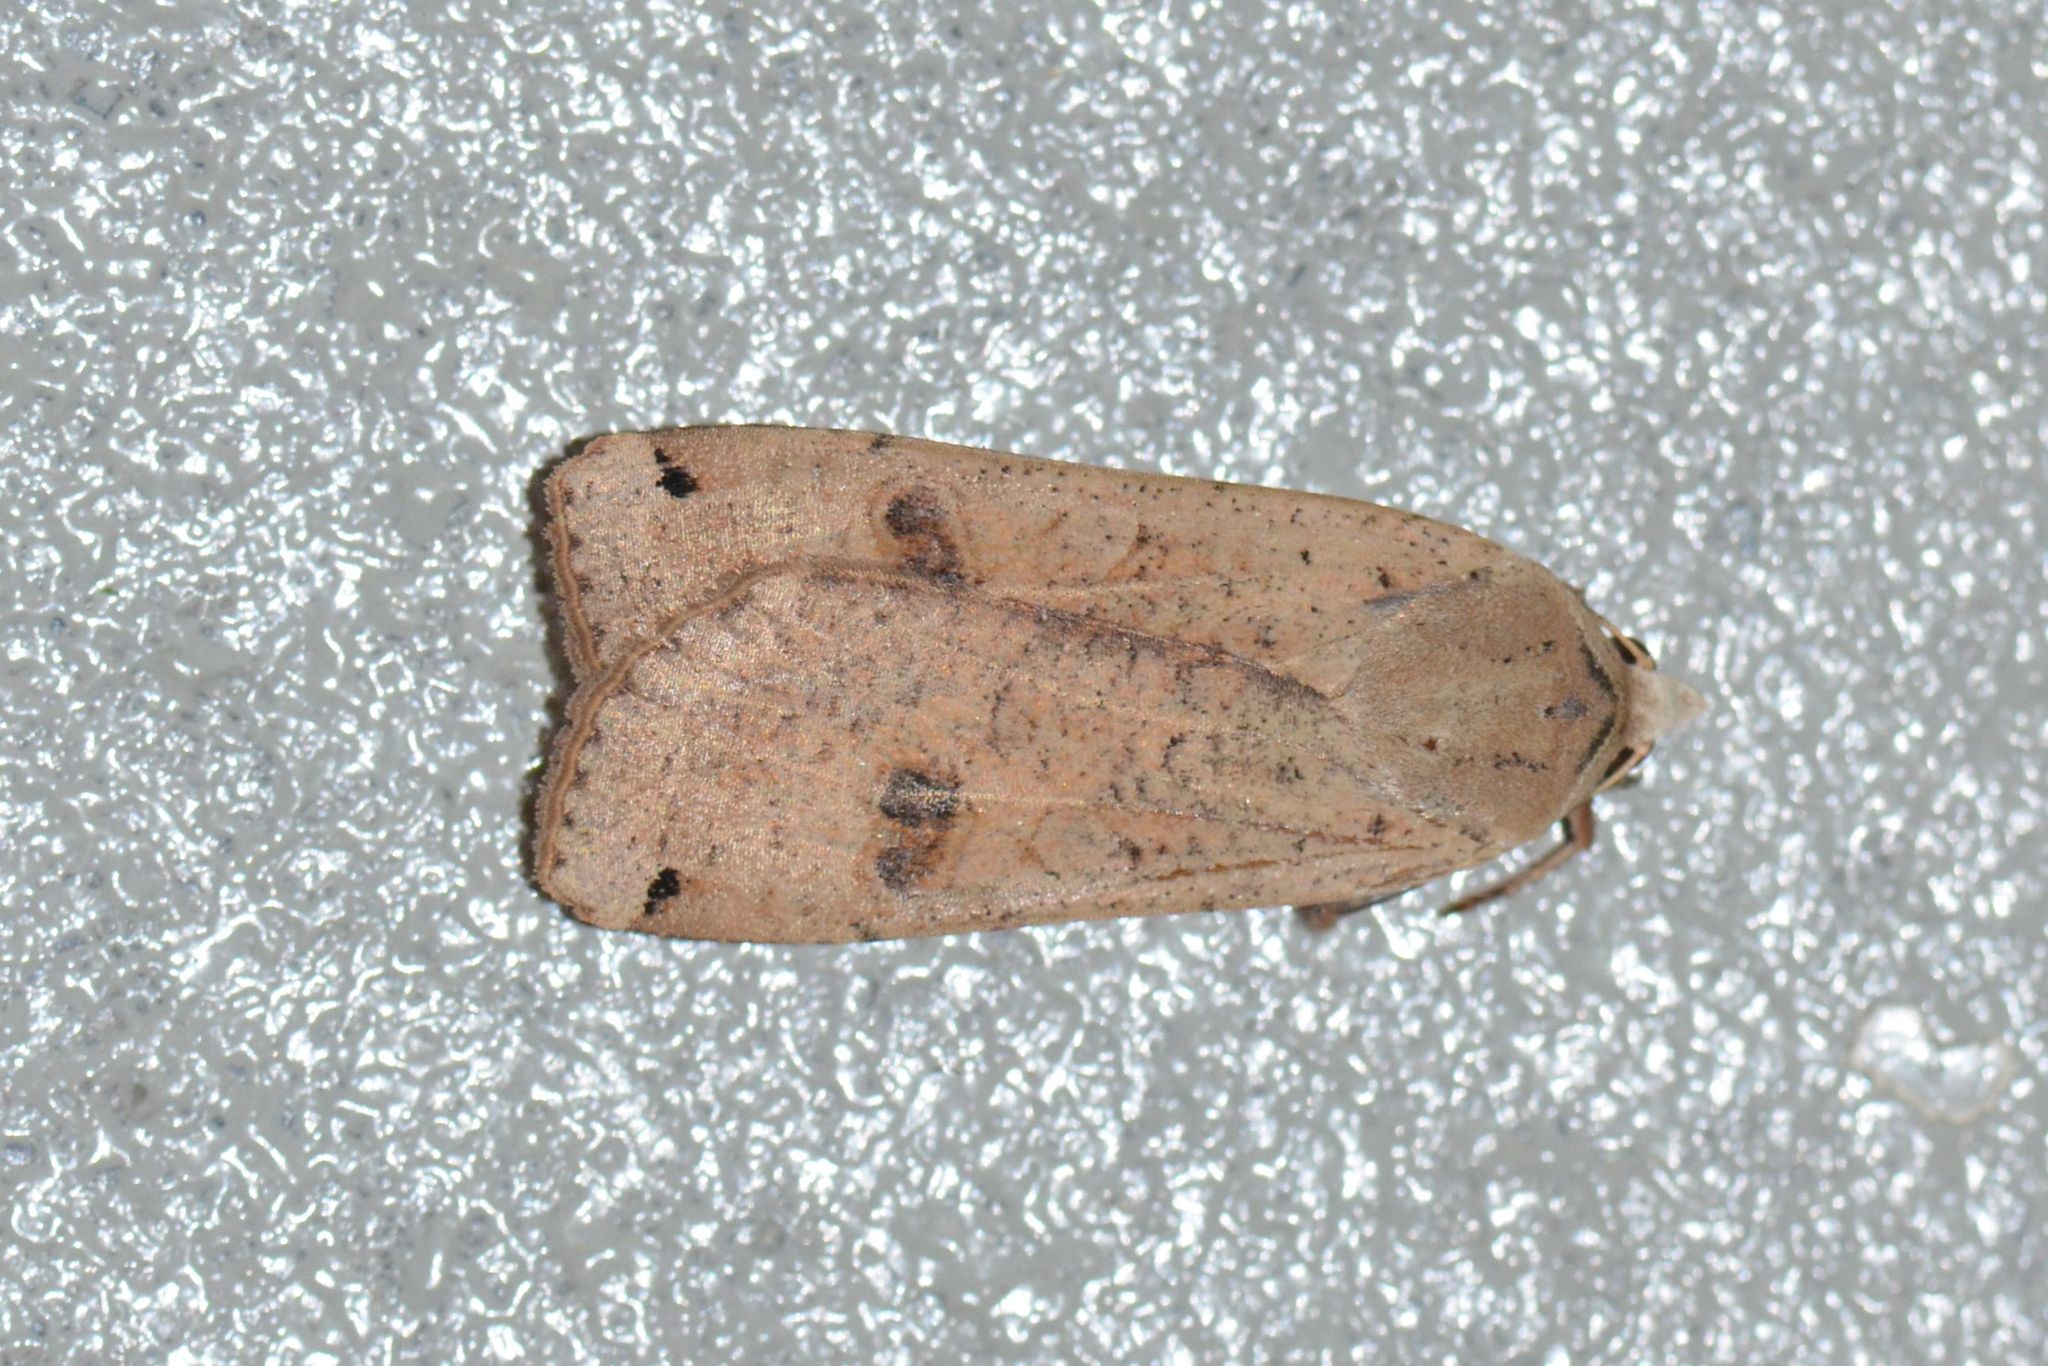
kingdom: Animalia
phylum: Arthropoda
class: Insecta
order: Lepidoptera
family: Noctuidae
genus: Noctua
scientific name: Noctua pronuba
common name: Large yellow underwing
